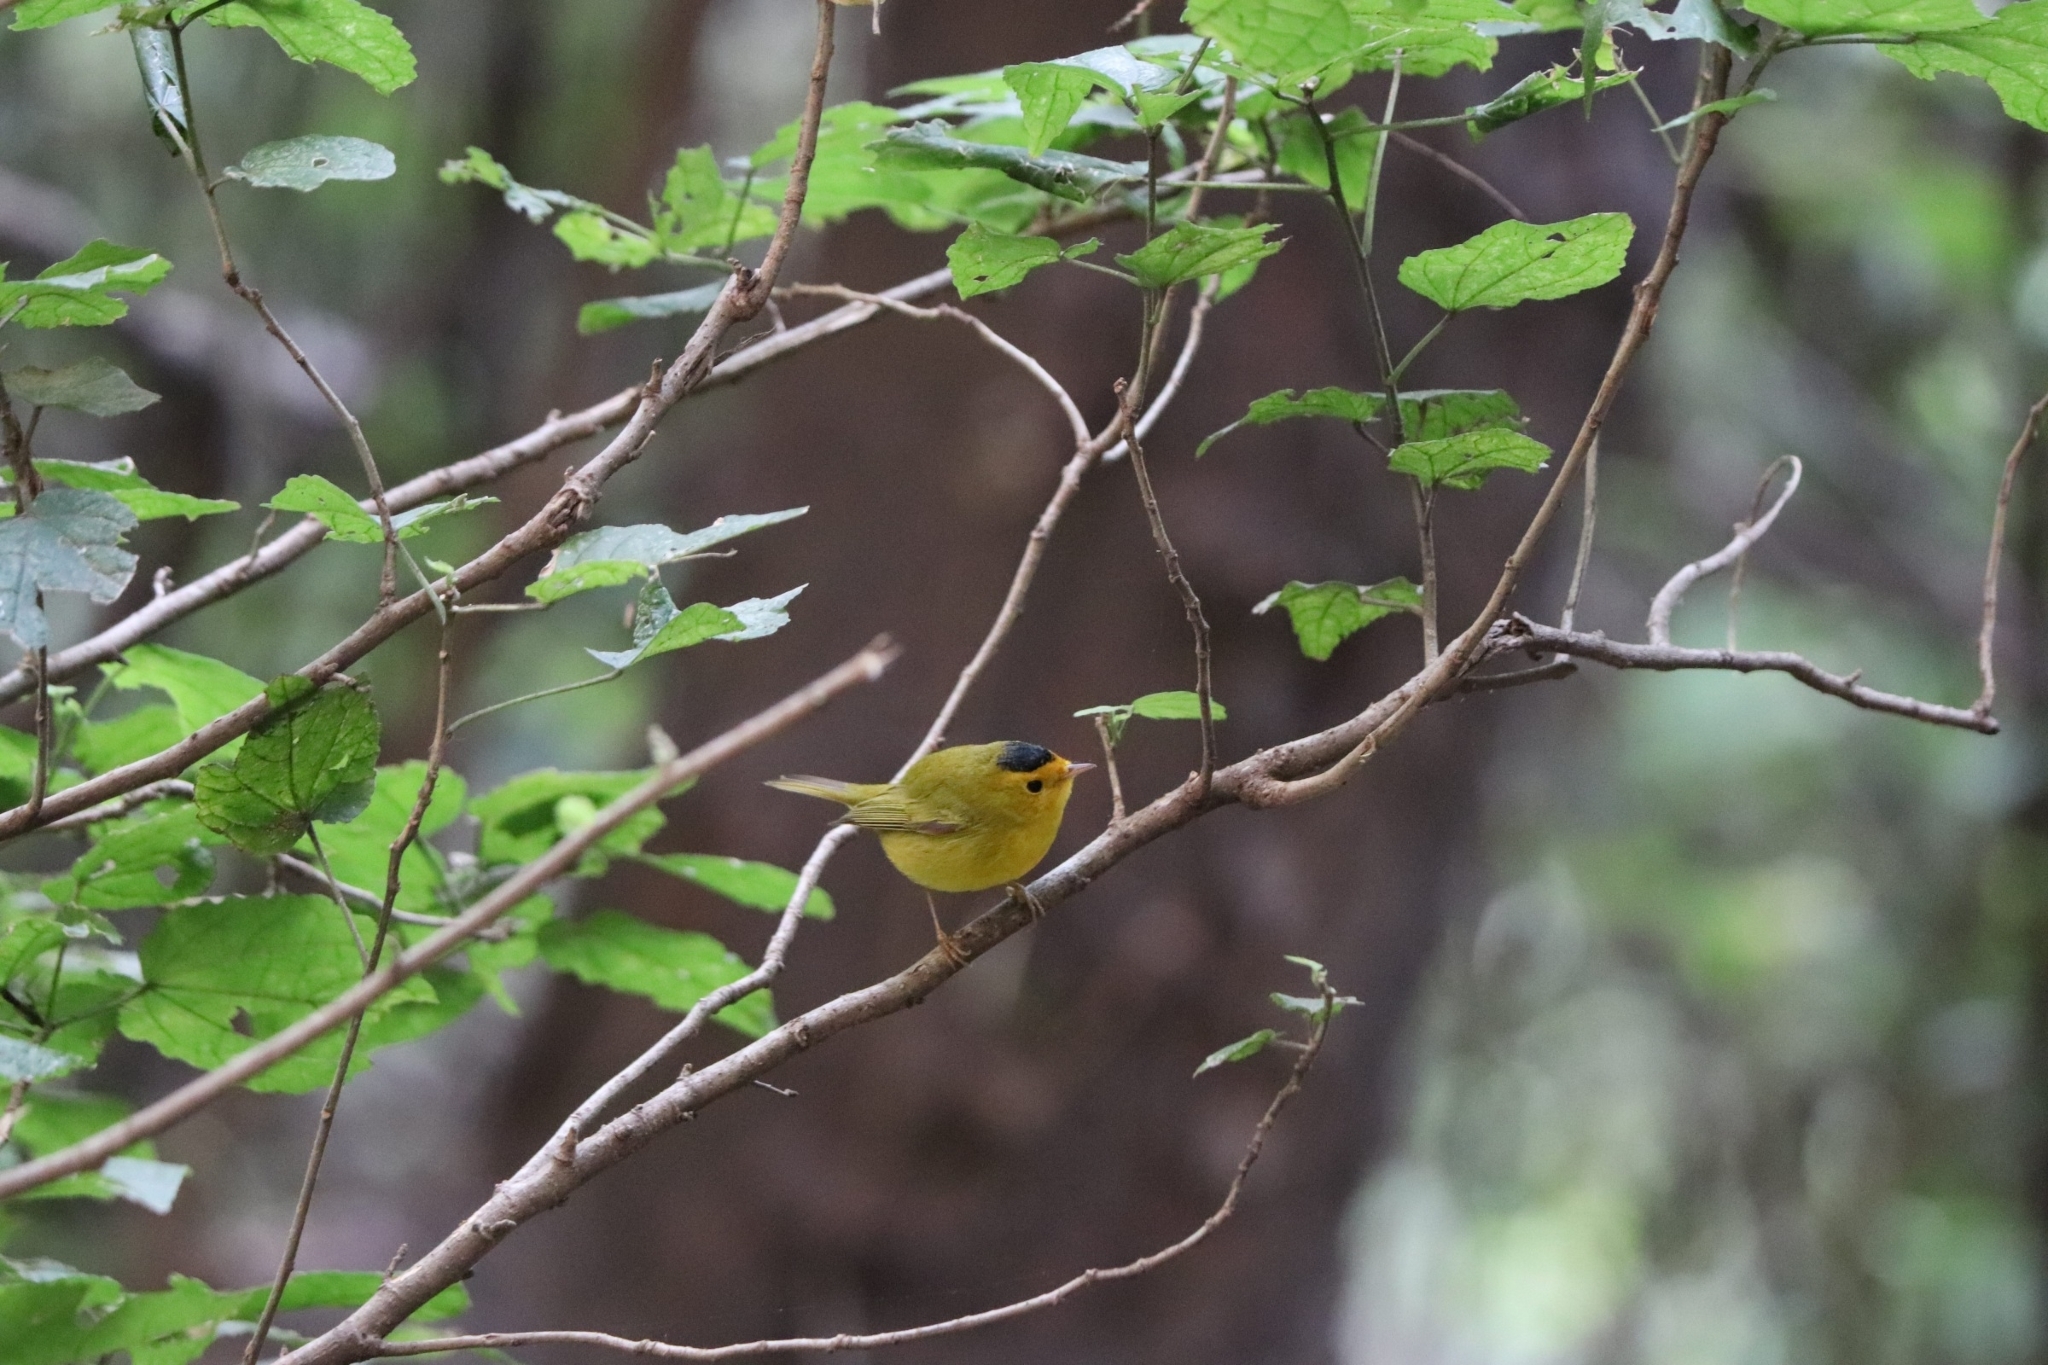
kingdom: Animalia
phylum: Chordata
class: Aves
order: Passeriformes
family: Parulidae
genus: Cardellina
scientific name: Cardellina pusilla
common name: Wilson's warbler
